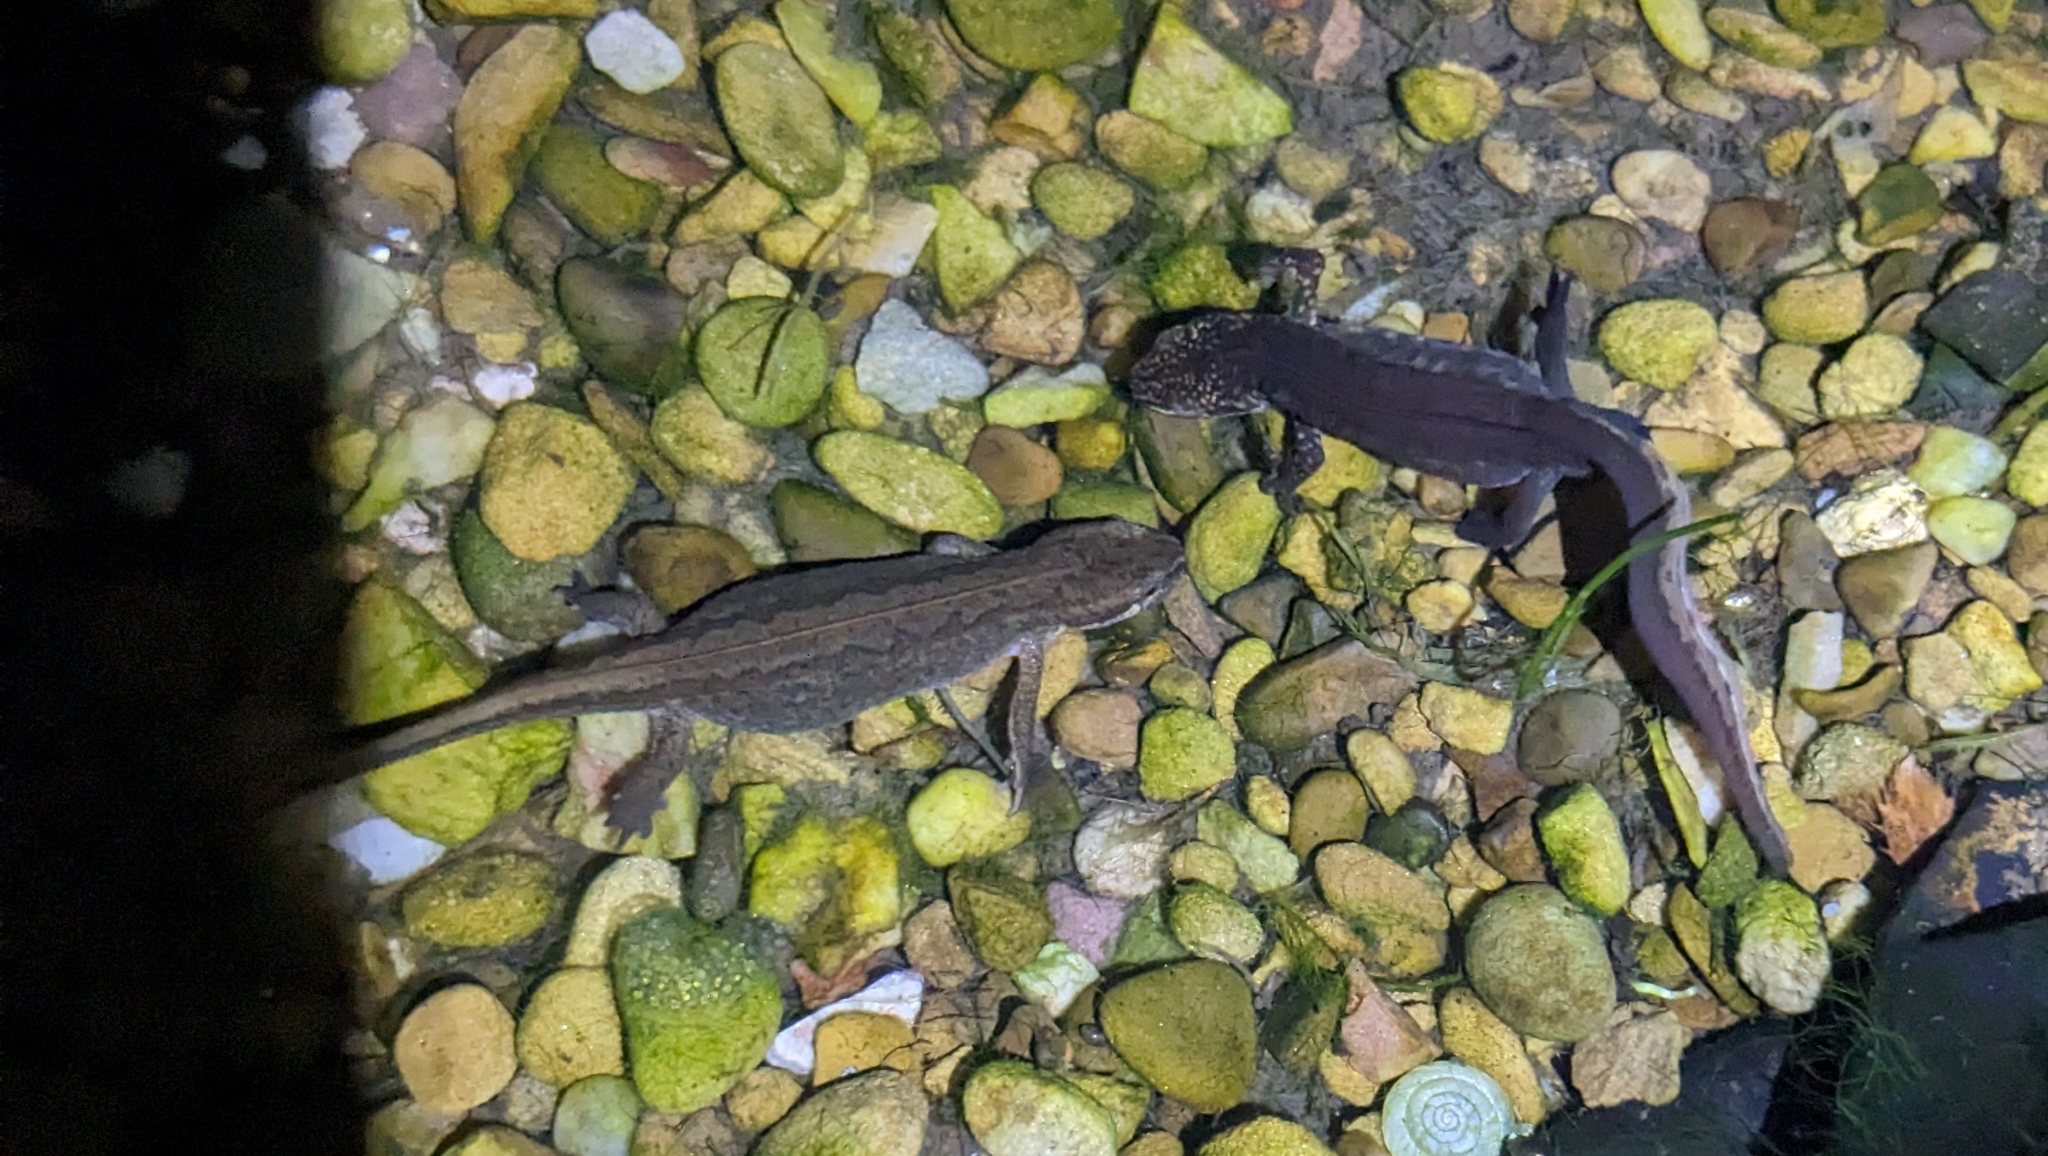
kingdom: Animalia
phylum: Chordata
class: Amphibia
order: Caudata
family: Salamandridae
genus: Lissotriton
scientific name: Lissotriton helveticus
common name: Palmate newt
